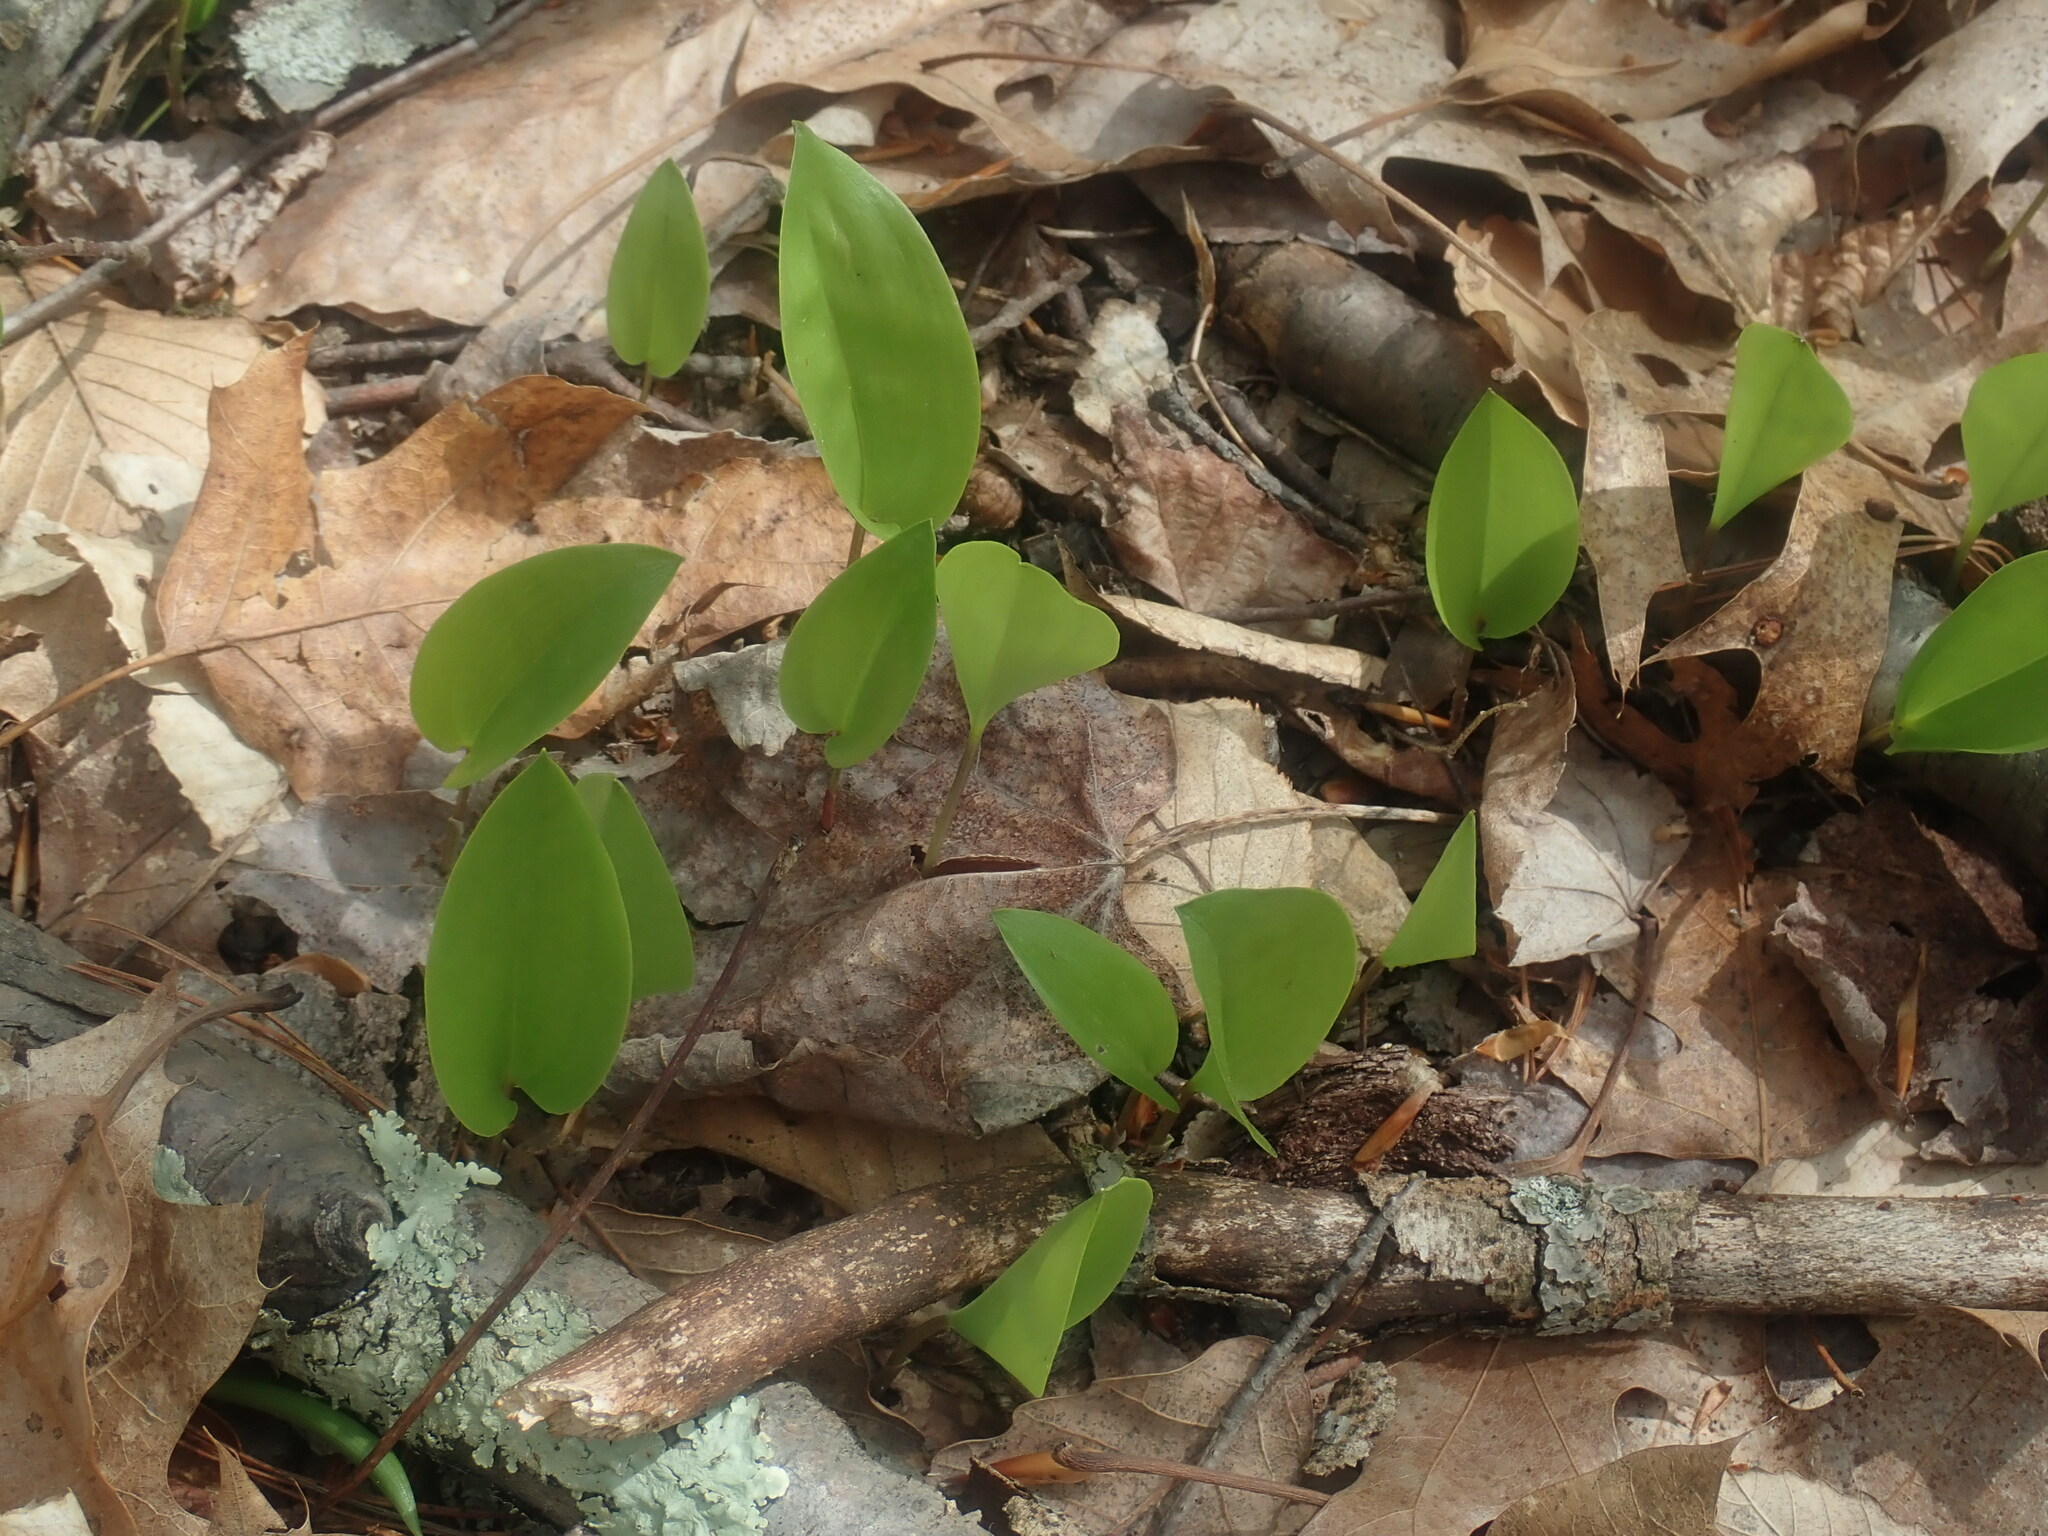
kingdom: Plantae
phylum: Tracheophyta
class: Liliopsida
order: Asparagales
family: Asparagaceae
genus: Maianthemum
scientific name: Maianthemum canadense
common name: False lily-of-the-valley
